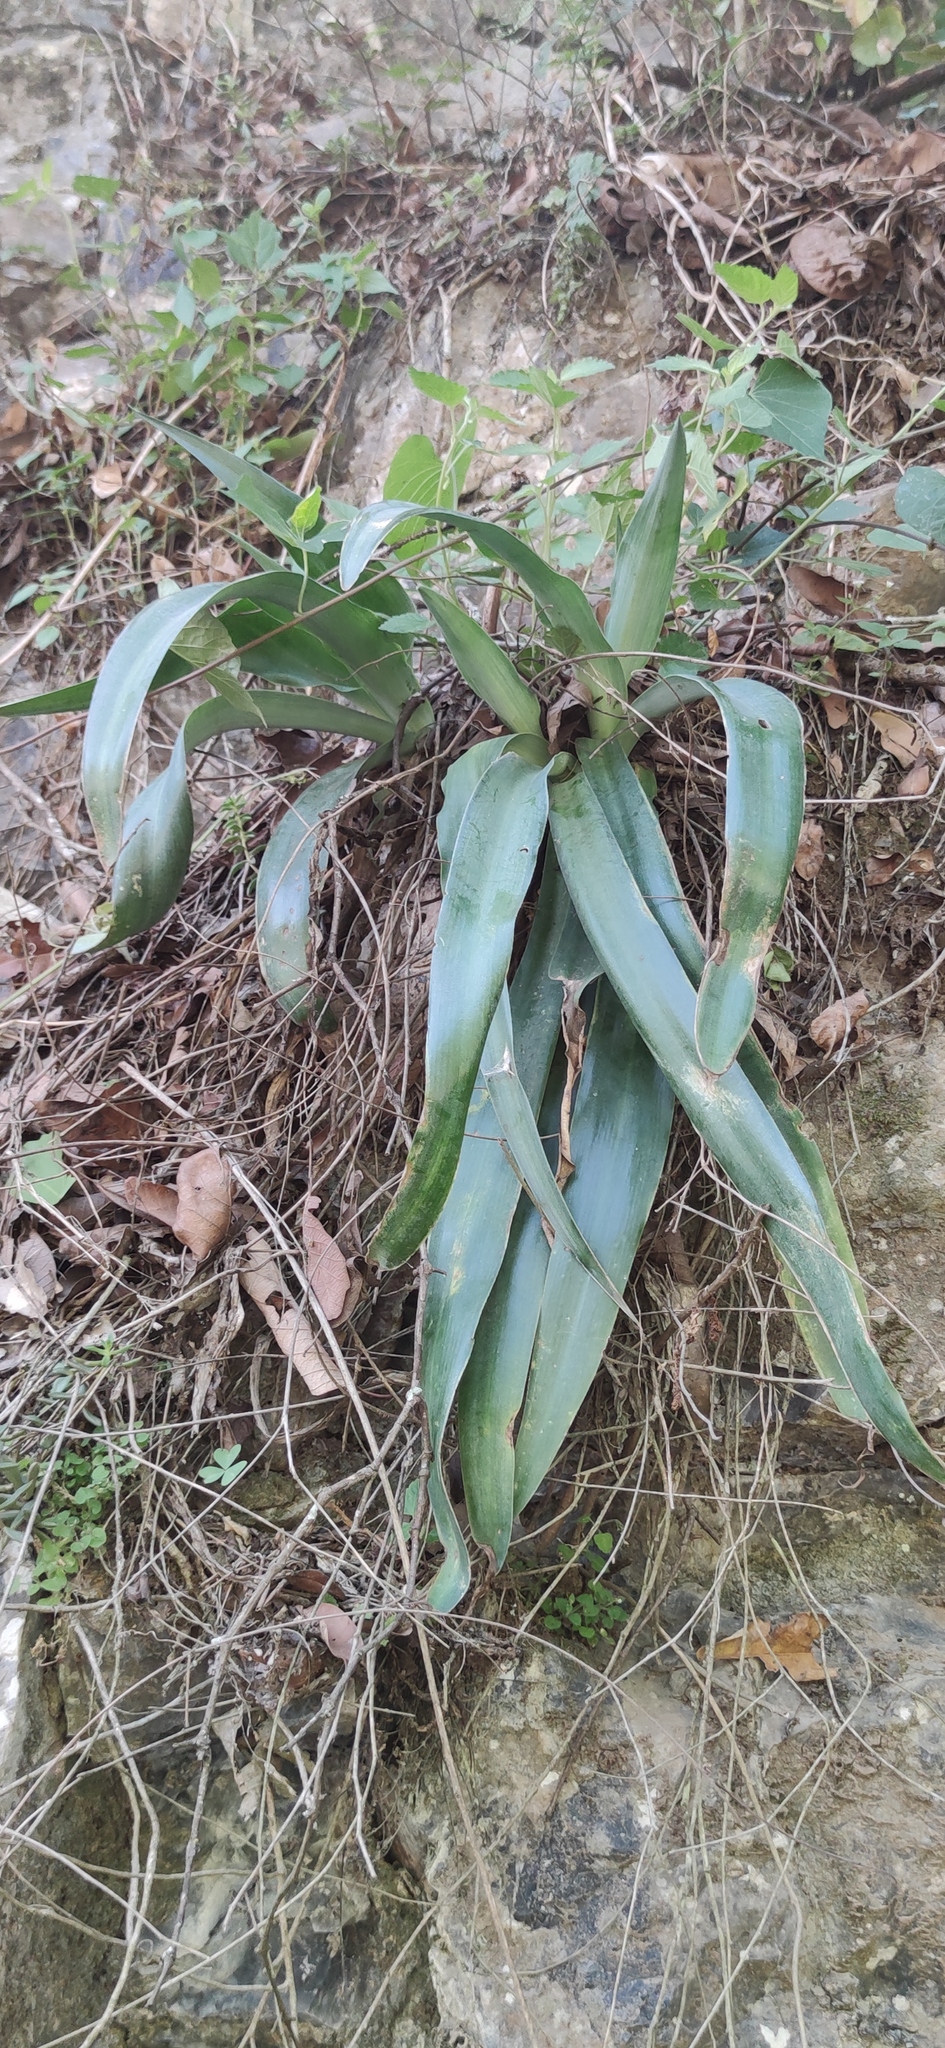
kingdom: Plantae
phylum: Tracheophyta
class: Liliopsida
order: Asparagales
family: Asparagaceae
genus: Agave
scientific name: Agave virginica
